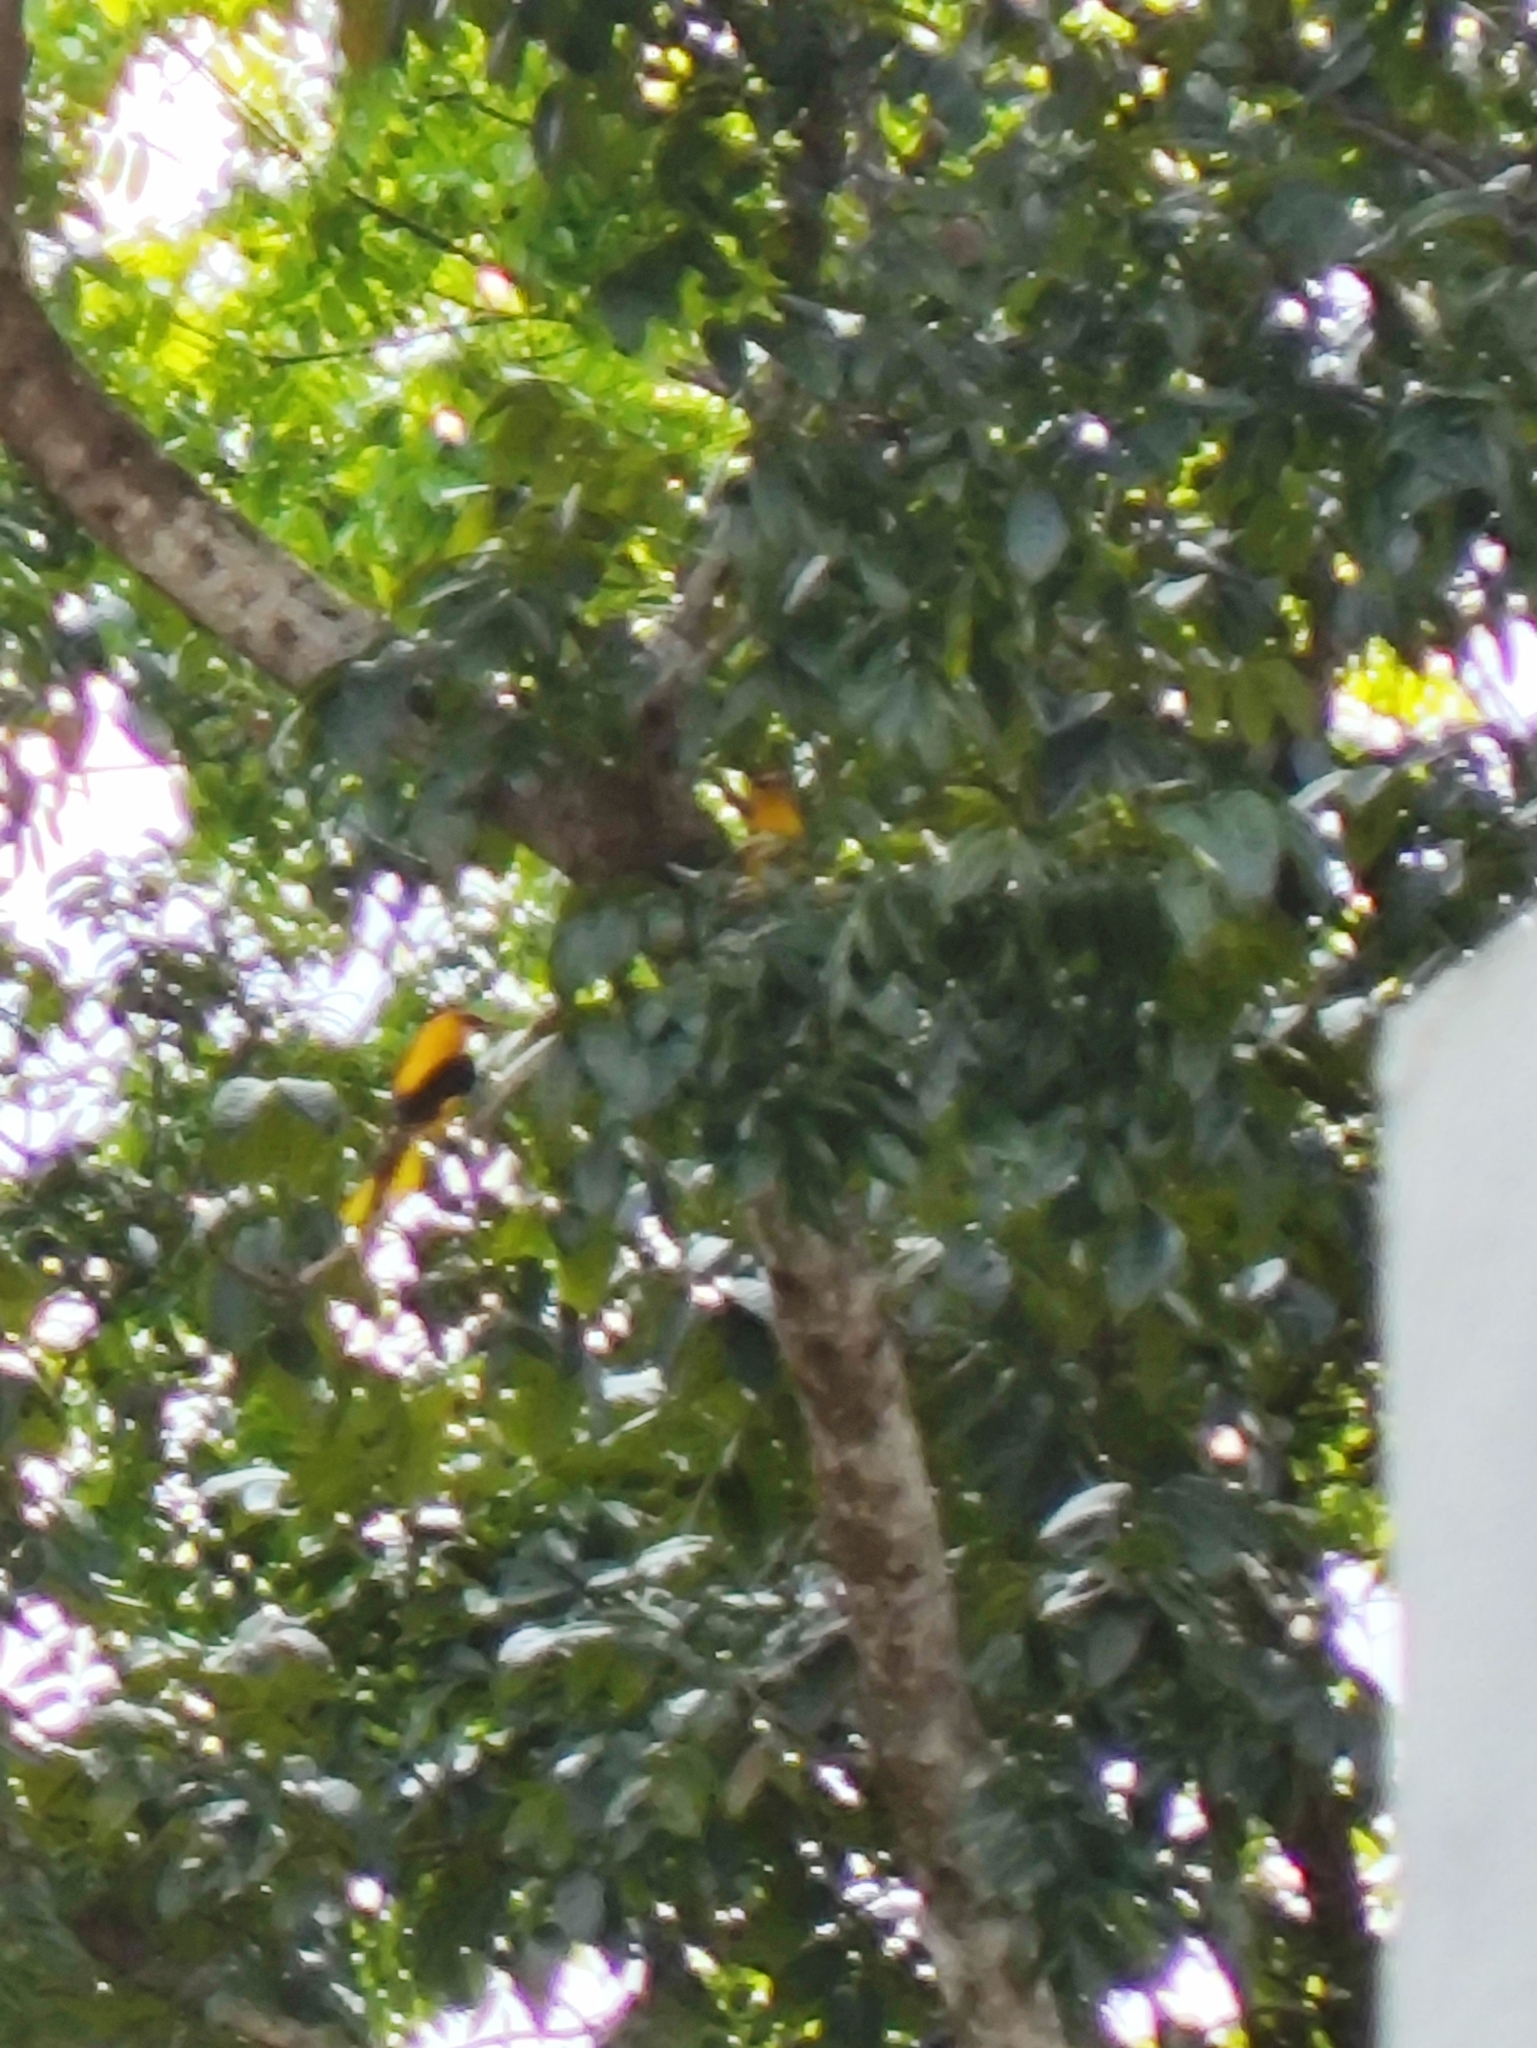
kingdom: Animalia
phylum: Chordata
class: Aves
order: Passeriformes
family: Oriolidae
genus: Oriolus
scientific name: Oriolus kundoo
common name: Indian golden oriole
